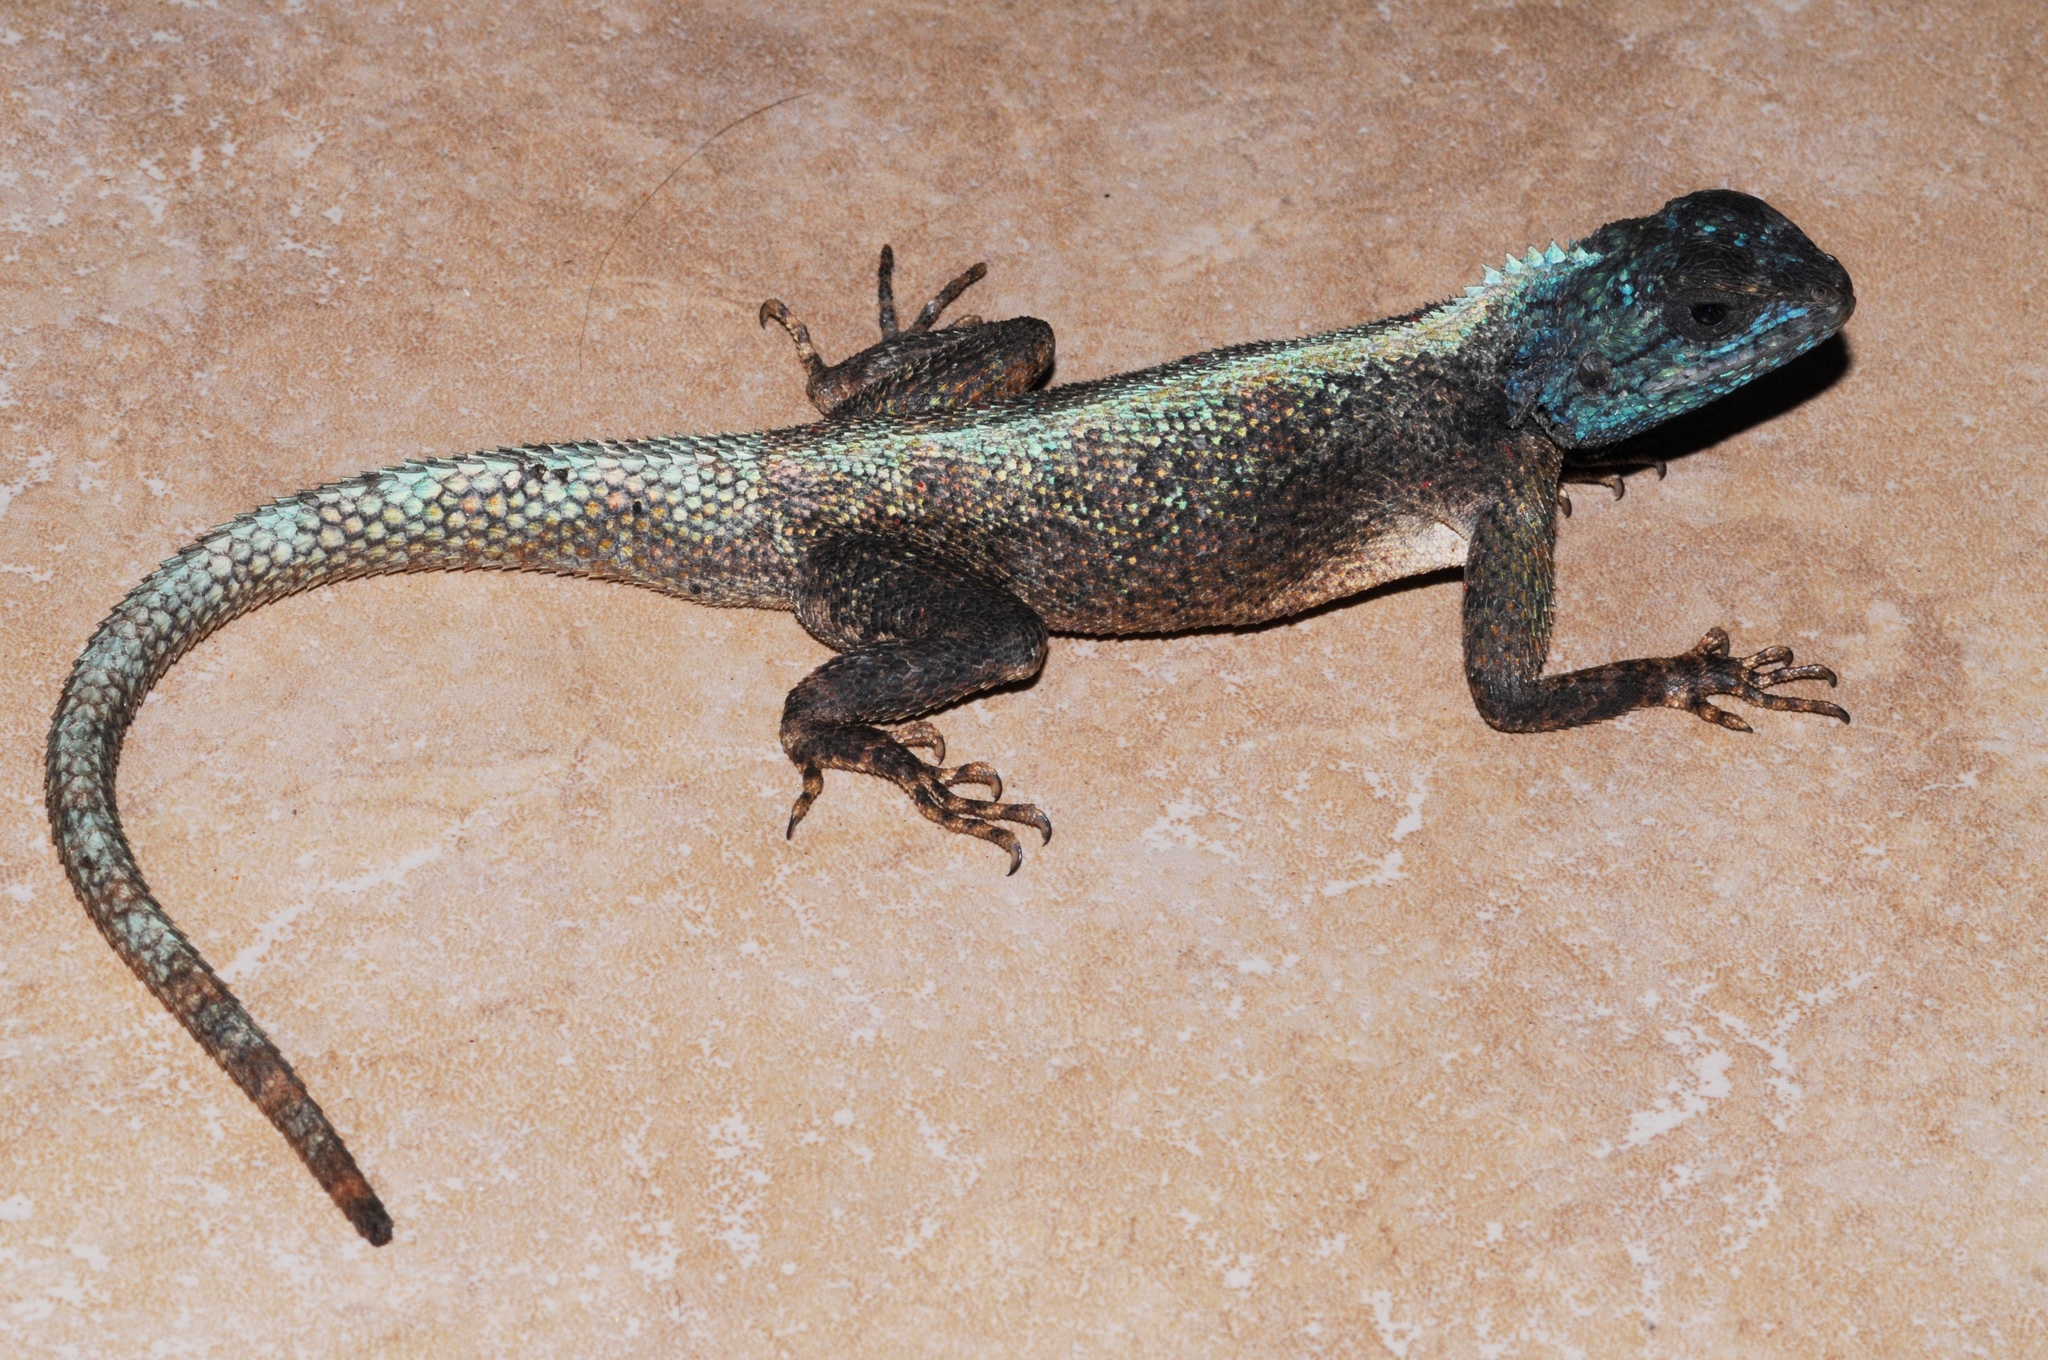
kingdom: Animalia
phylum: Chordata
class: Squamata
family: Agamidae
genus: Agama
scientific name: Agama mossambica
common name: Mozambique agama
